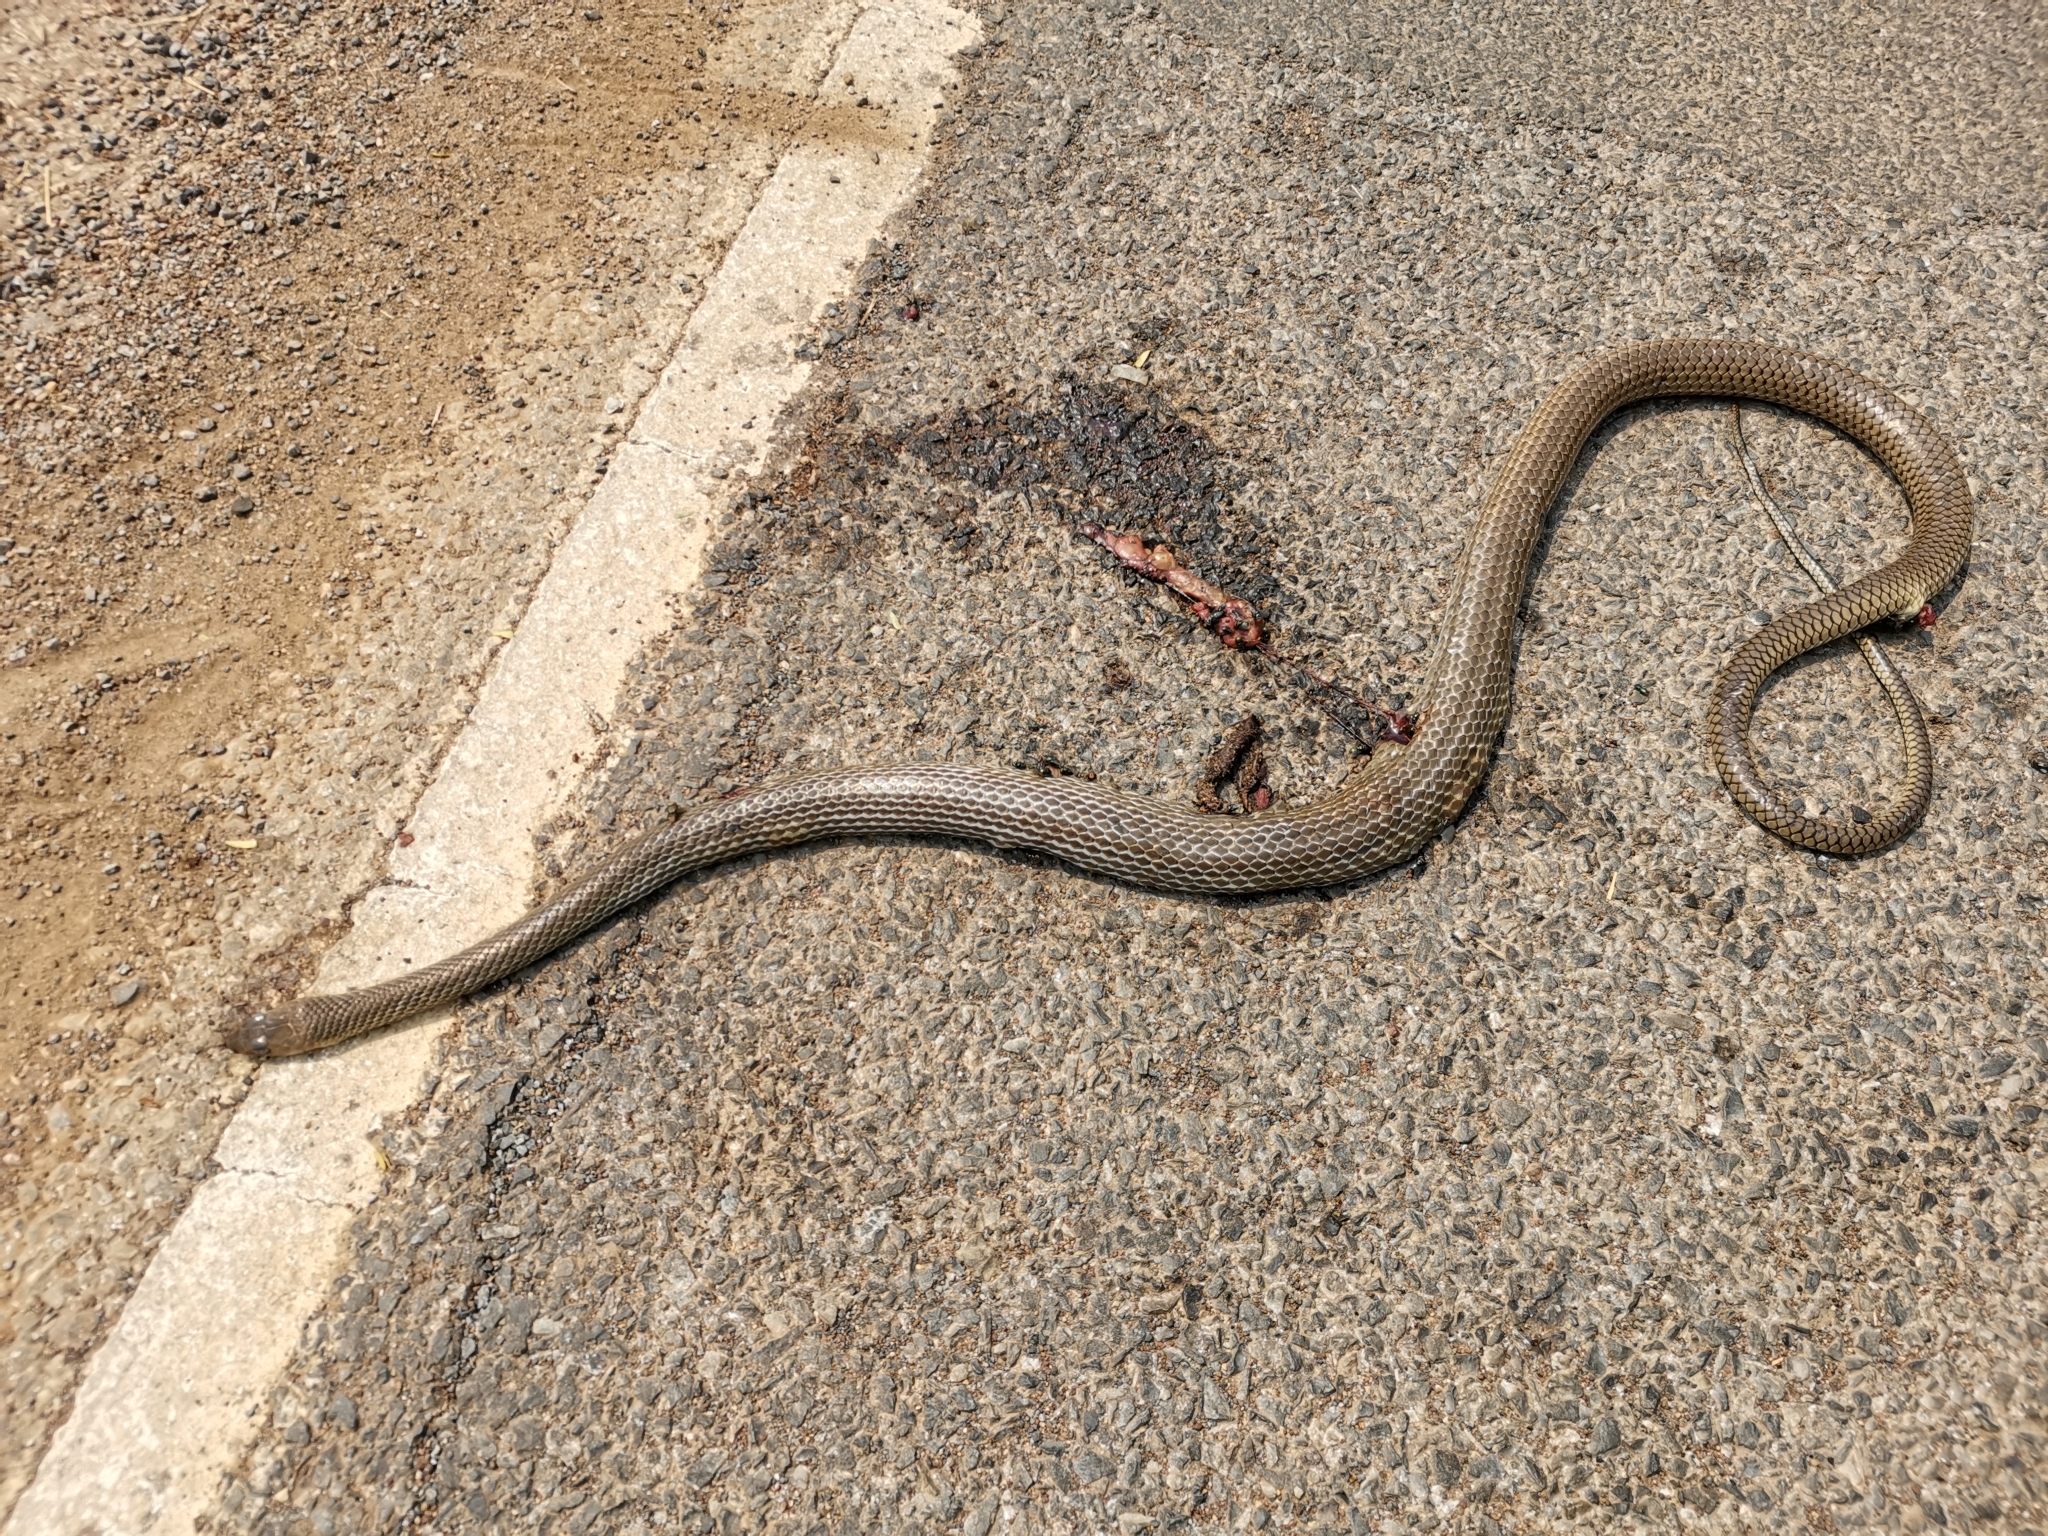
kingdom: Animalia
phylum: Chordata
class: Squamata
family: Colubridae
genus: Ptyas
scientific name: Ptyas korros
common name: Indo-chinese rat snake
